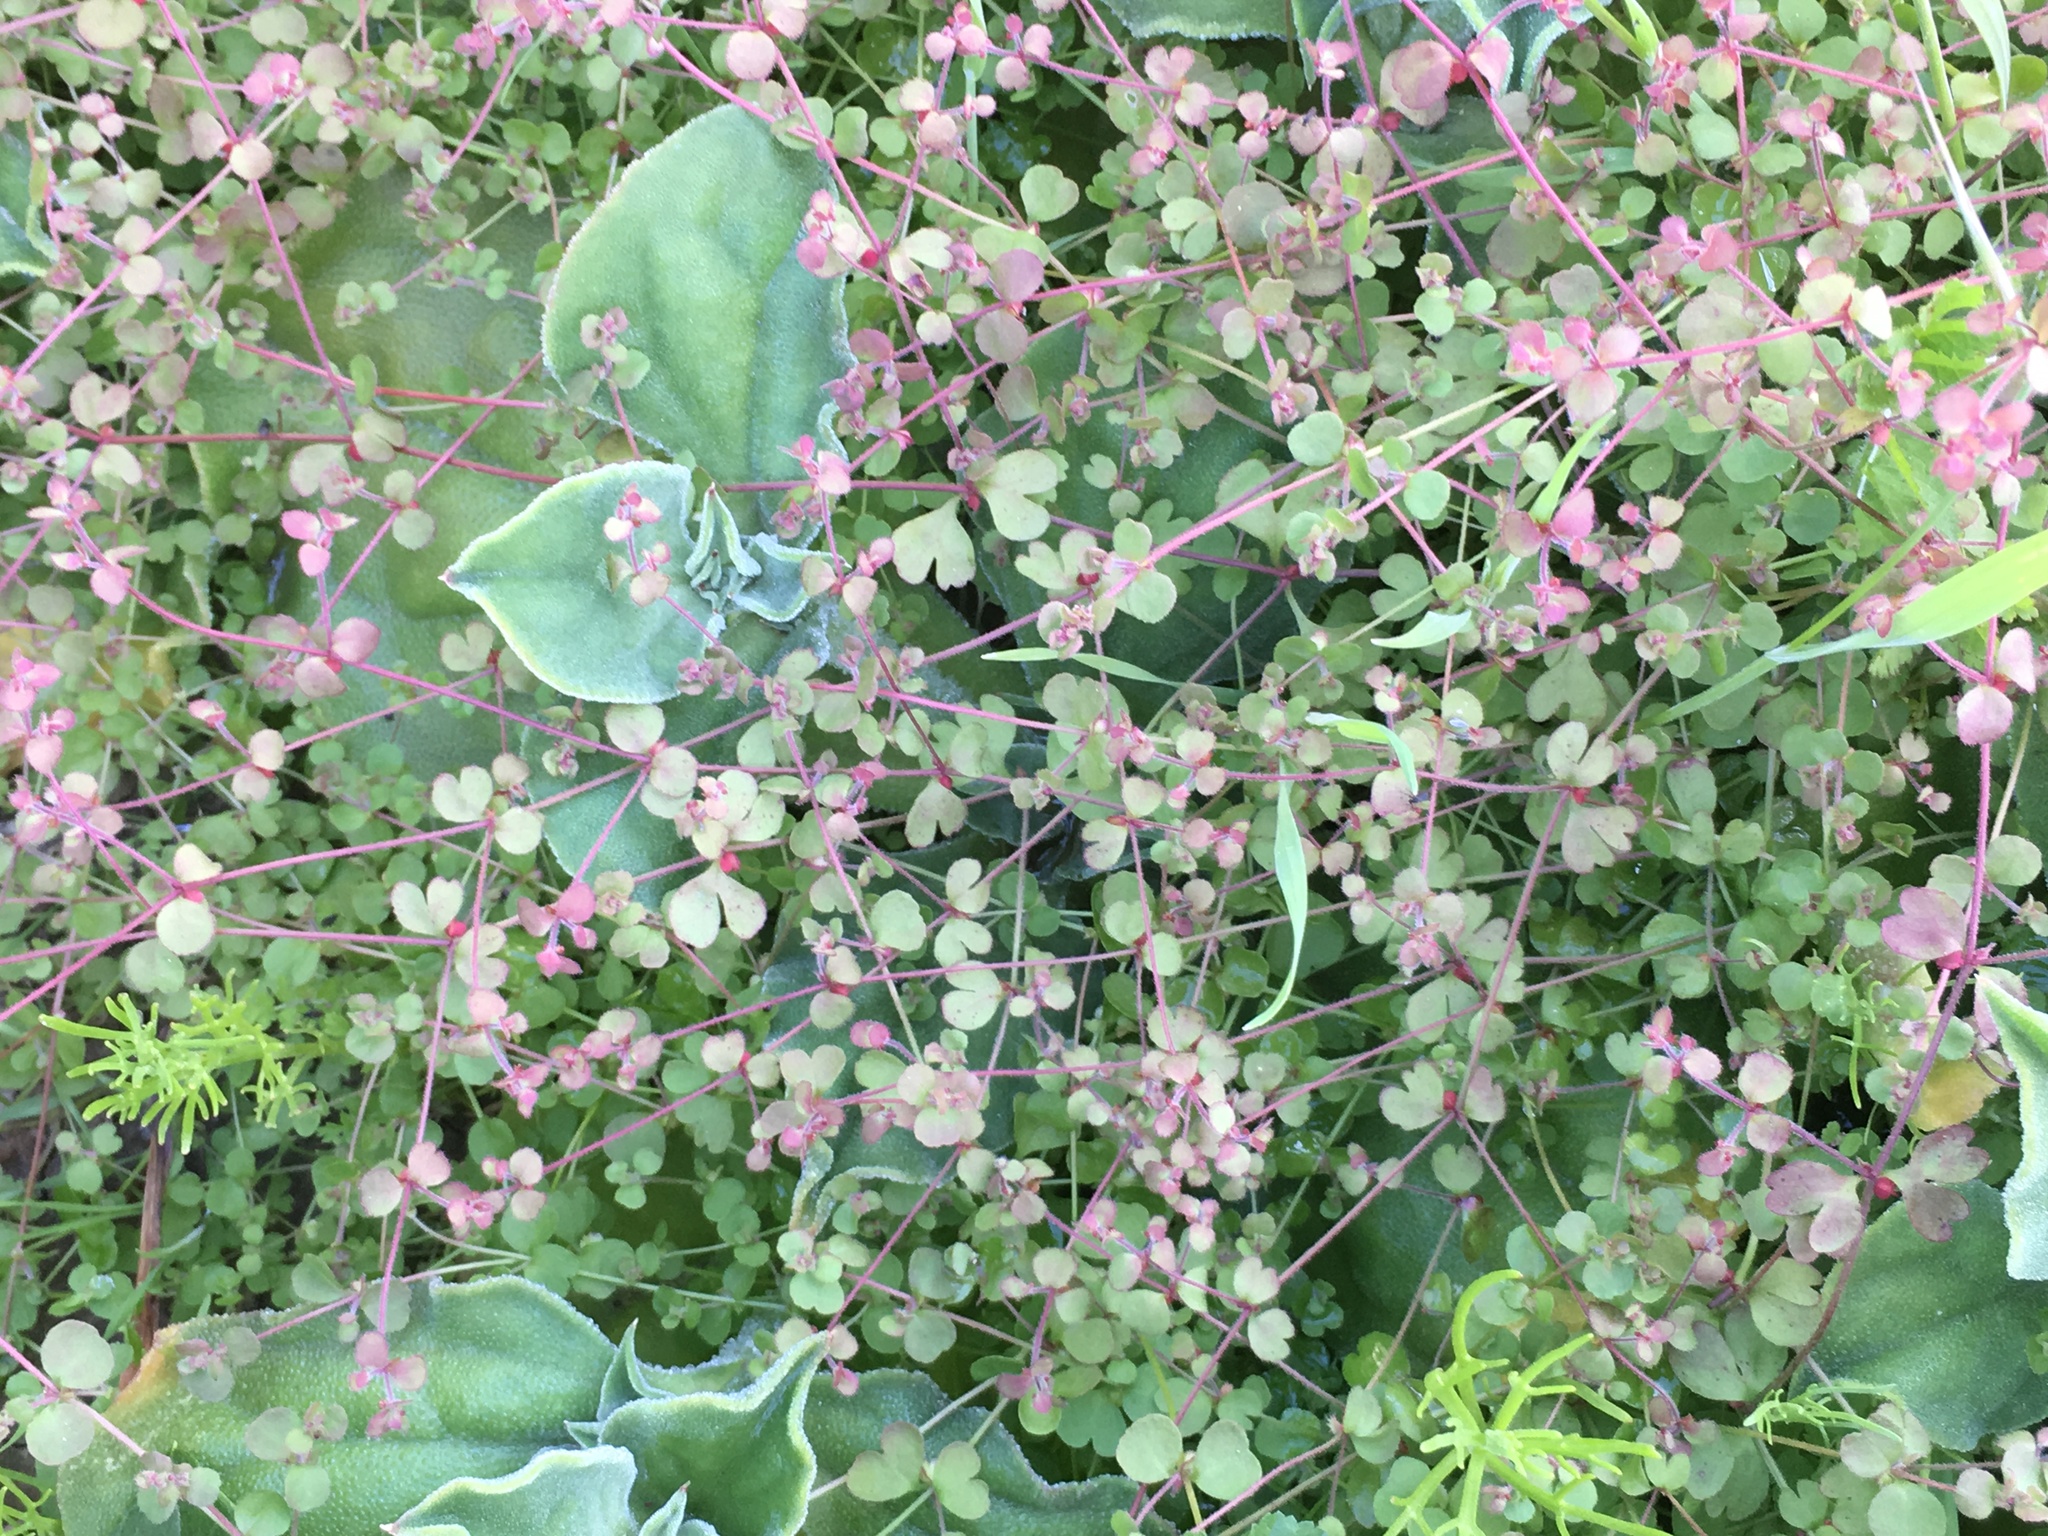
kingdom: Plantae
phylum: Tracheophyta
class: Magnoliopsida
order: Caryophyllales
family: Polygonaceae
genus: Pterostegia
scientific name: Pterostegia drymarioides
